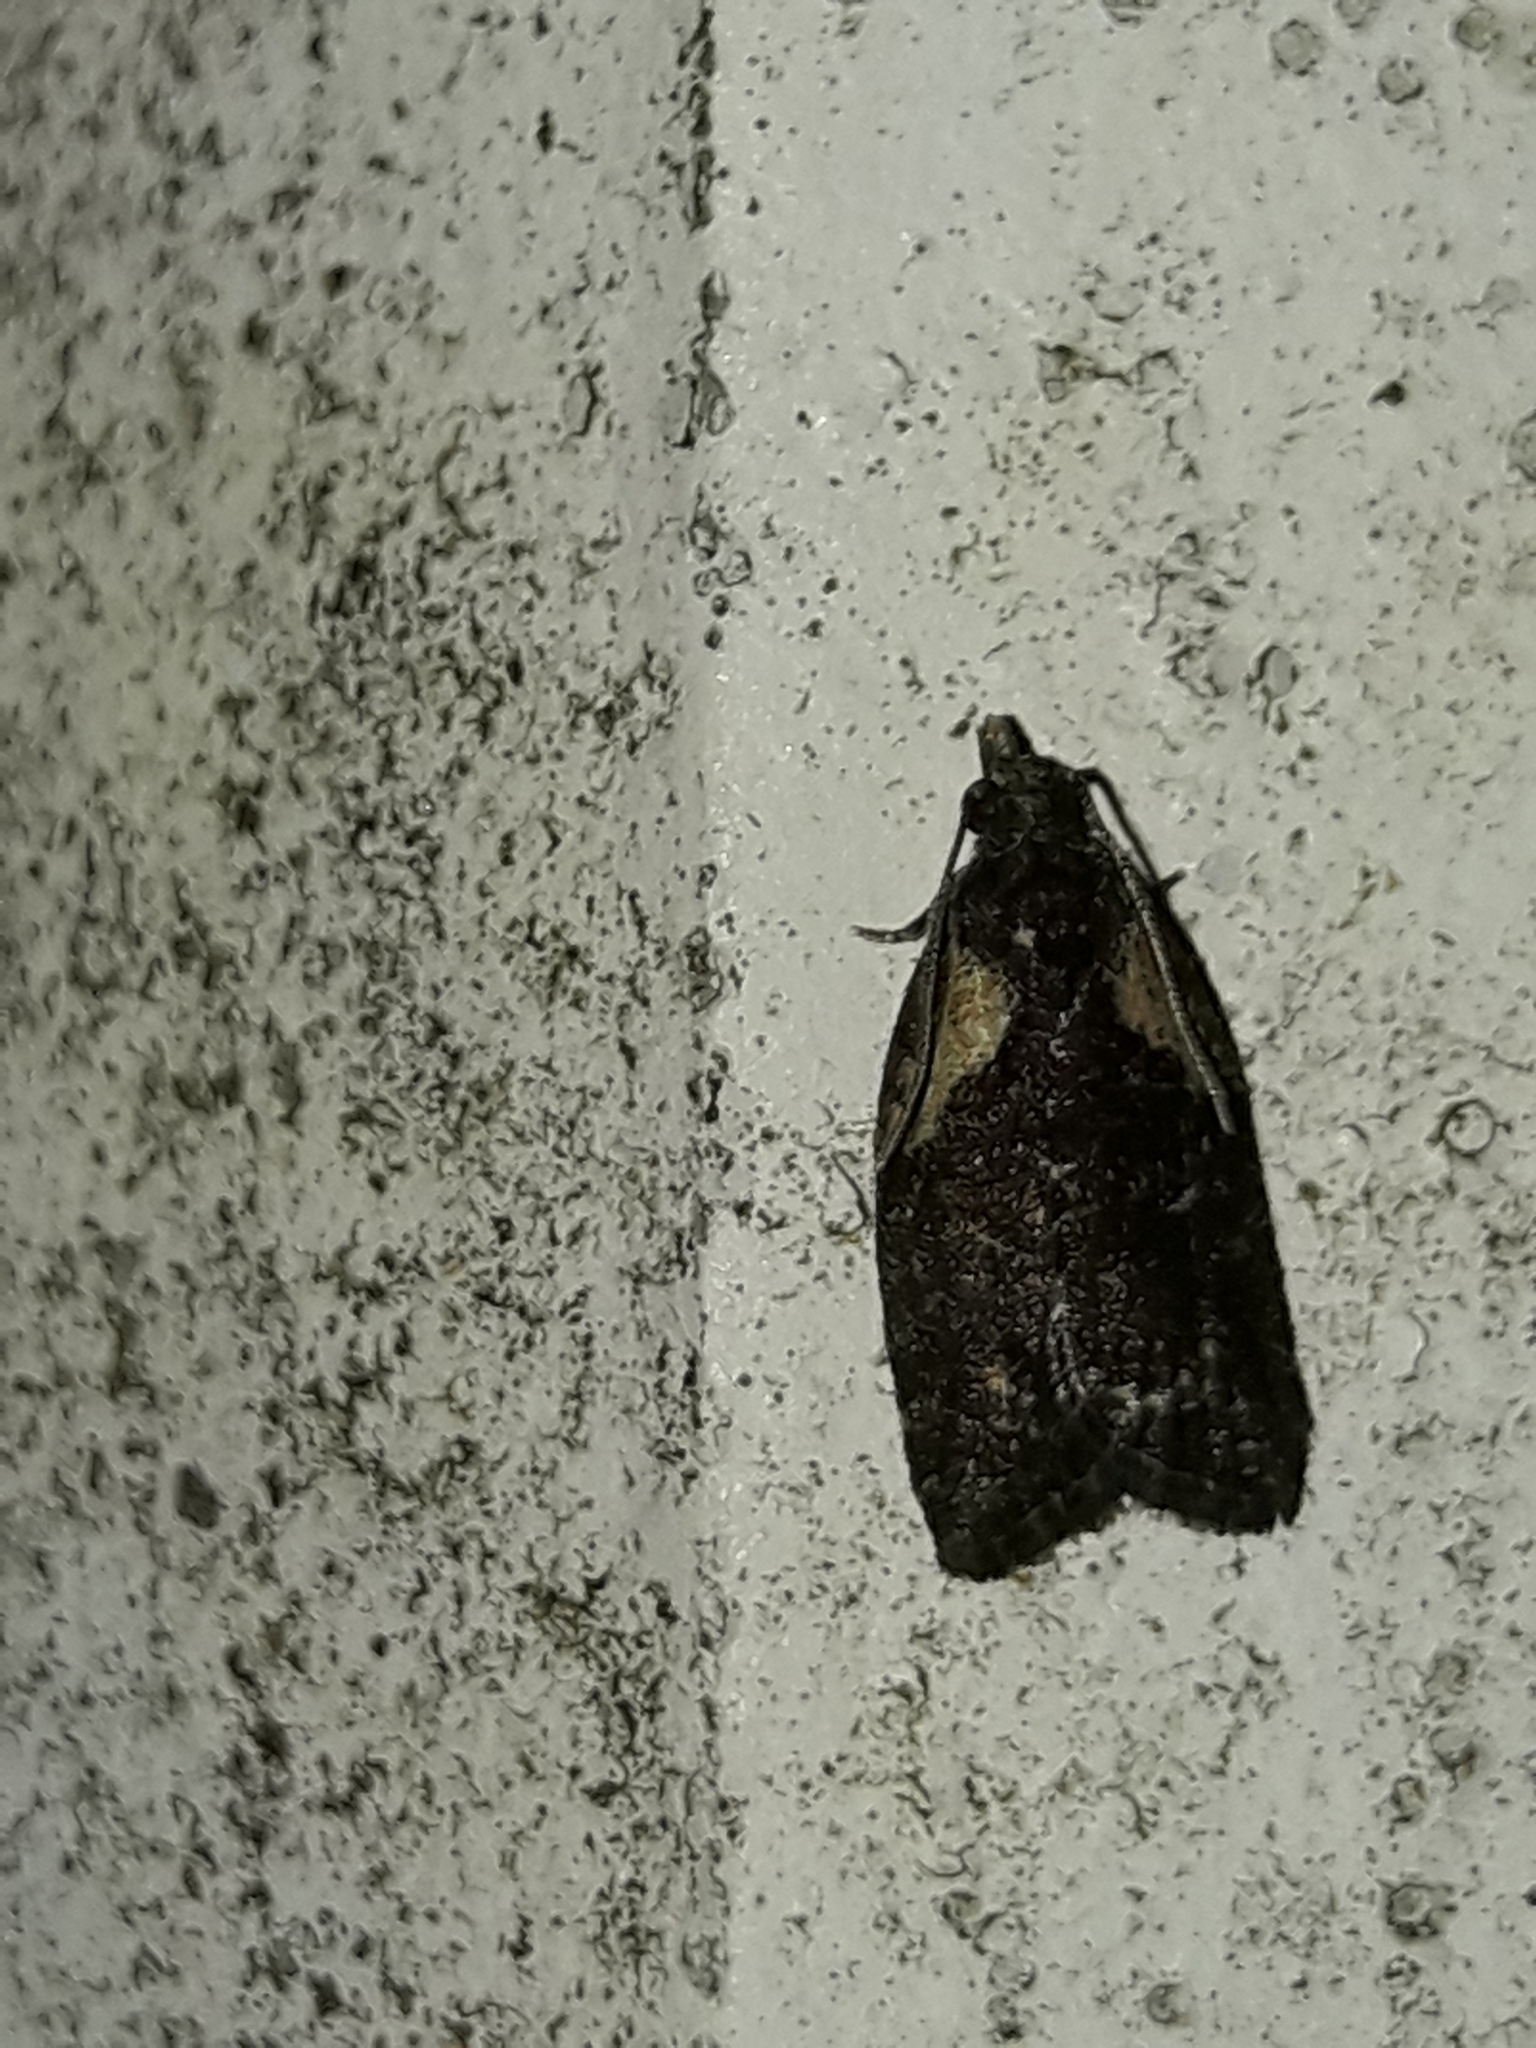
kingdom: Animalia
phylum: Arthropoda
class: Insecta
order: Lepidoptera
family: Tortricidae
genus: Capua
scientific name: Capua intractana
